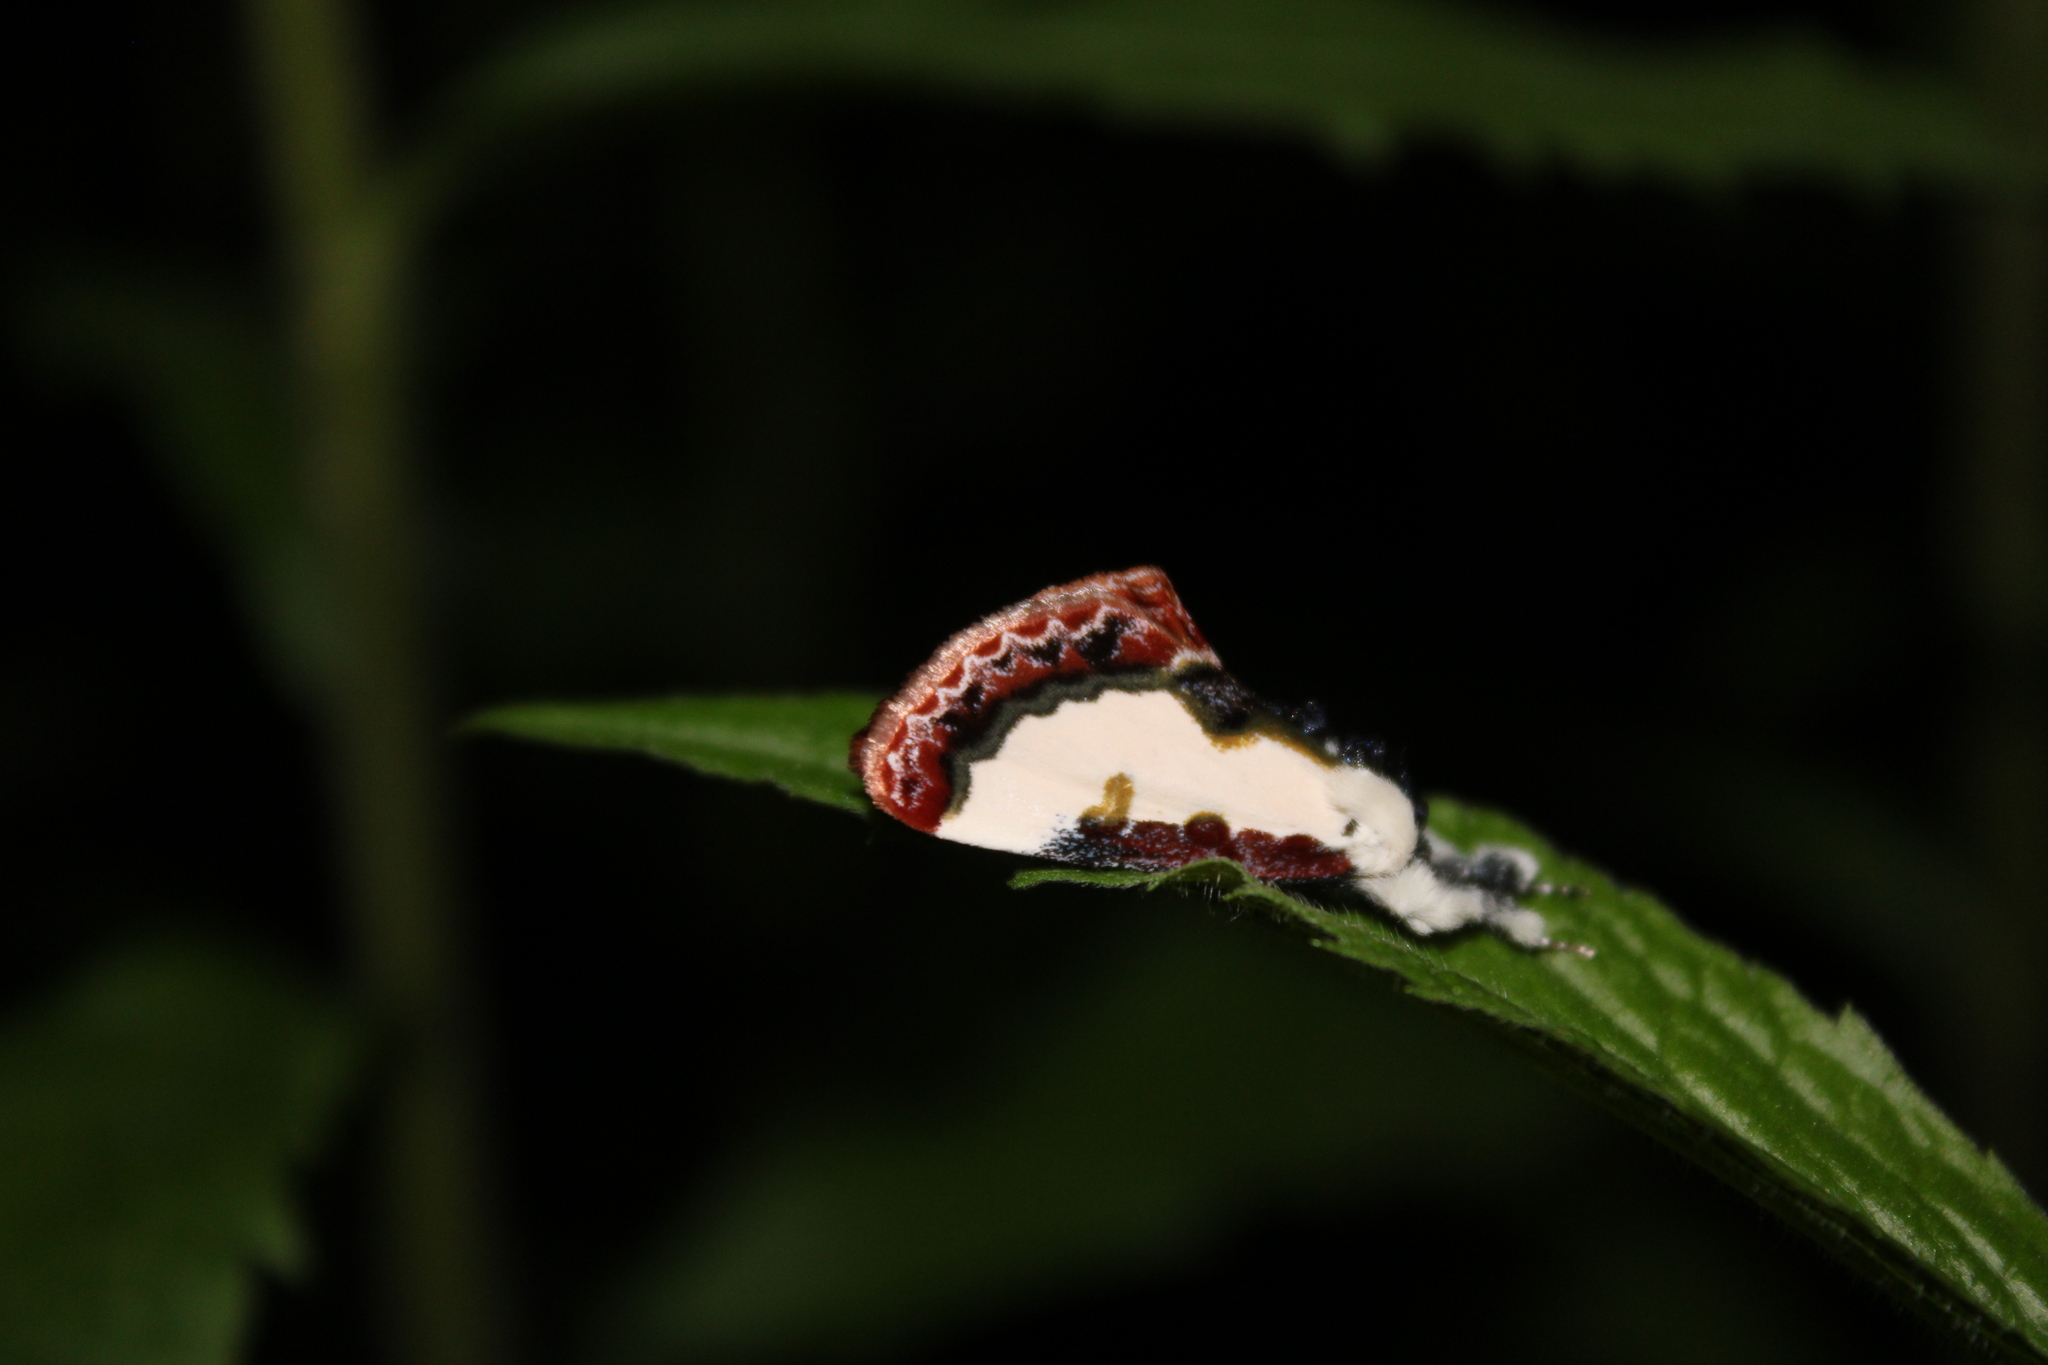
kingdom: Animalia
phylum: Arthropoda
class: Insecta
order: Lepidoptera
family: Noctuidae
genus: Eudryas
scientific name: Eudryas unio
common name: Pearly wood-nymph
